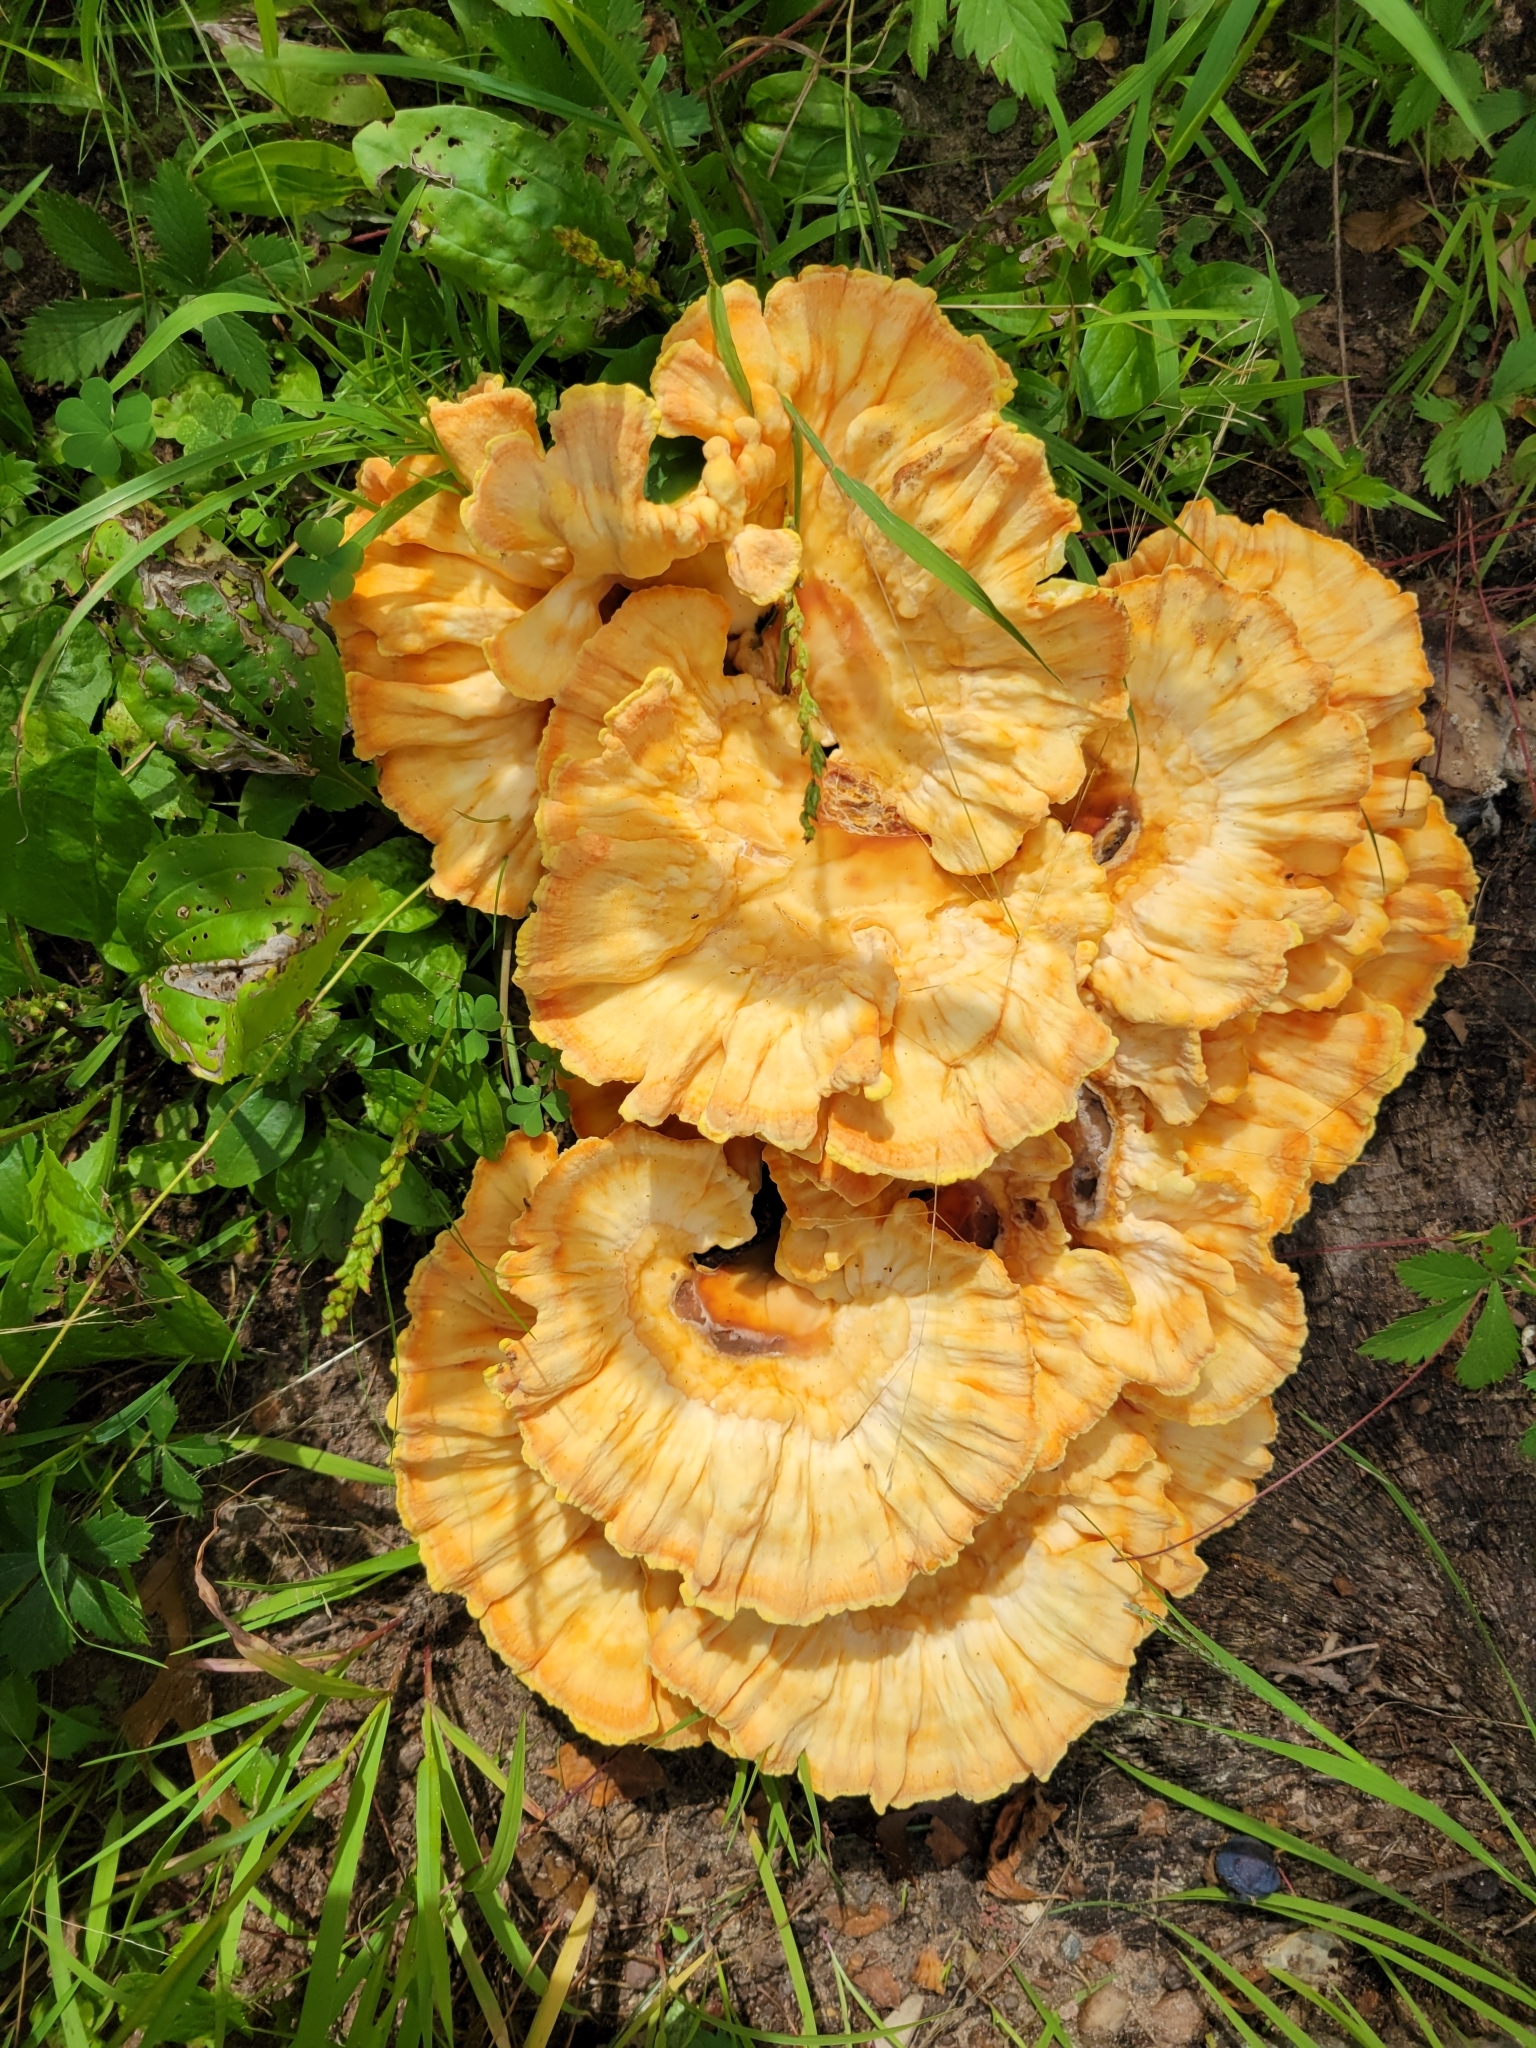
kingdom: Fungi
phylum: Basidiomycota
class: Agaricomycetes
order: Polyporales
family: Laetiporaceae
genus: Laetiporus
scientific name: Laetiporus sulphureus
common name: Chicken of the woods
